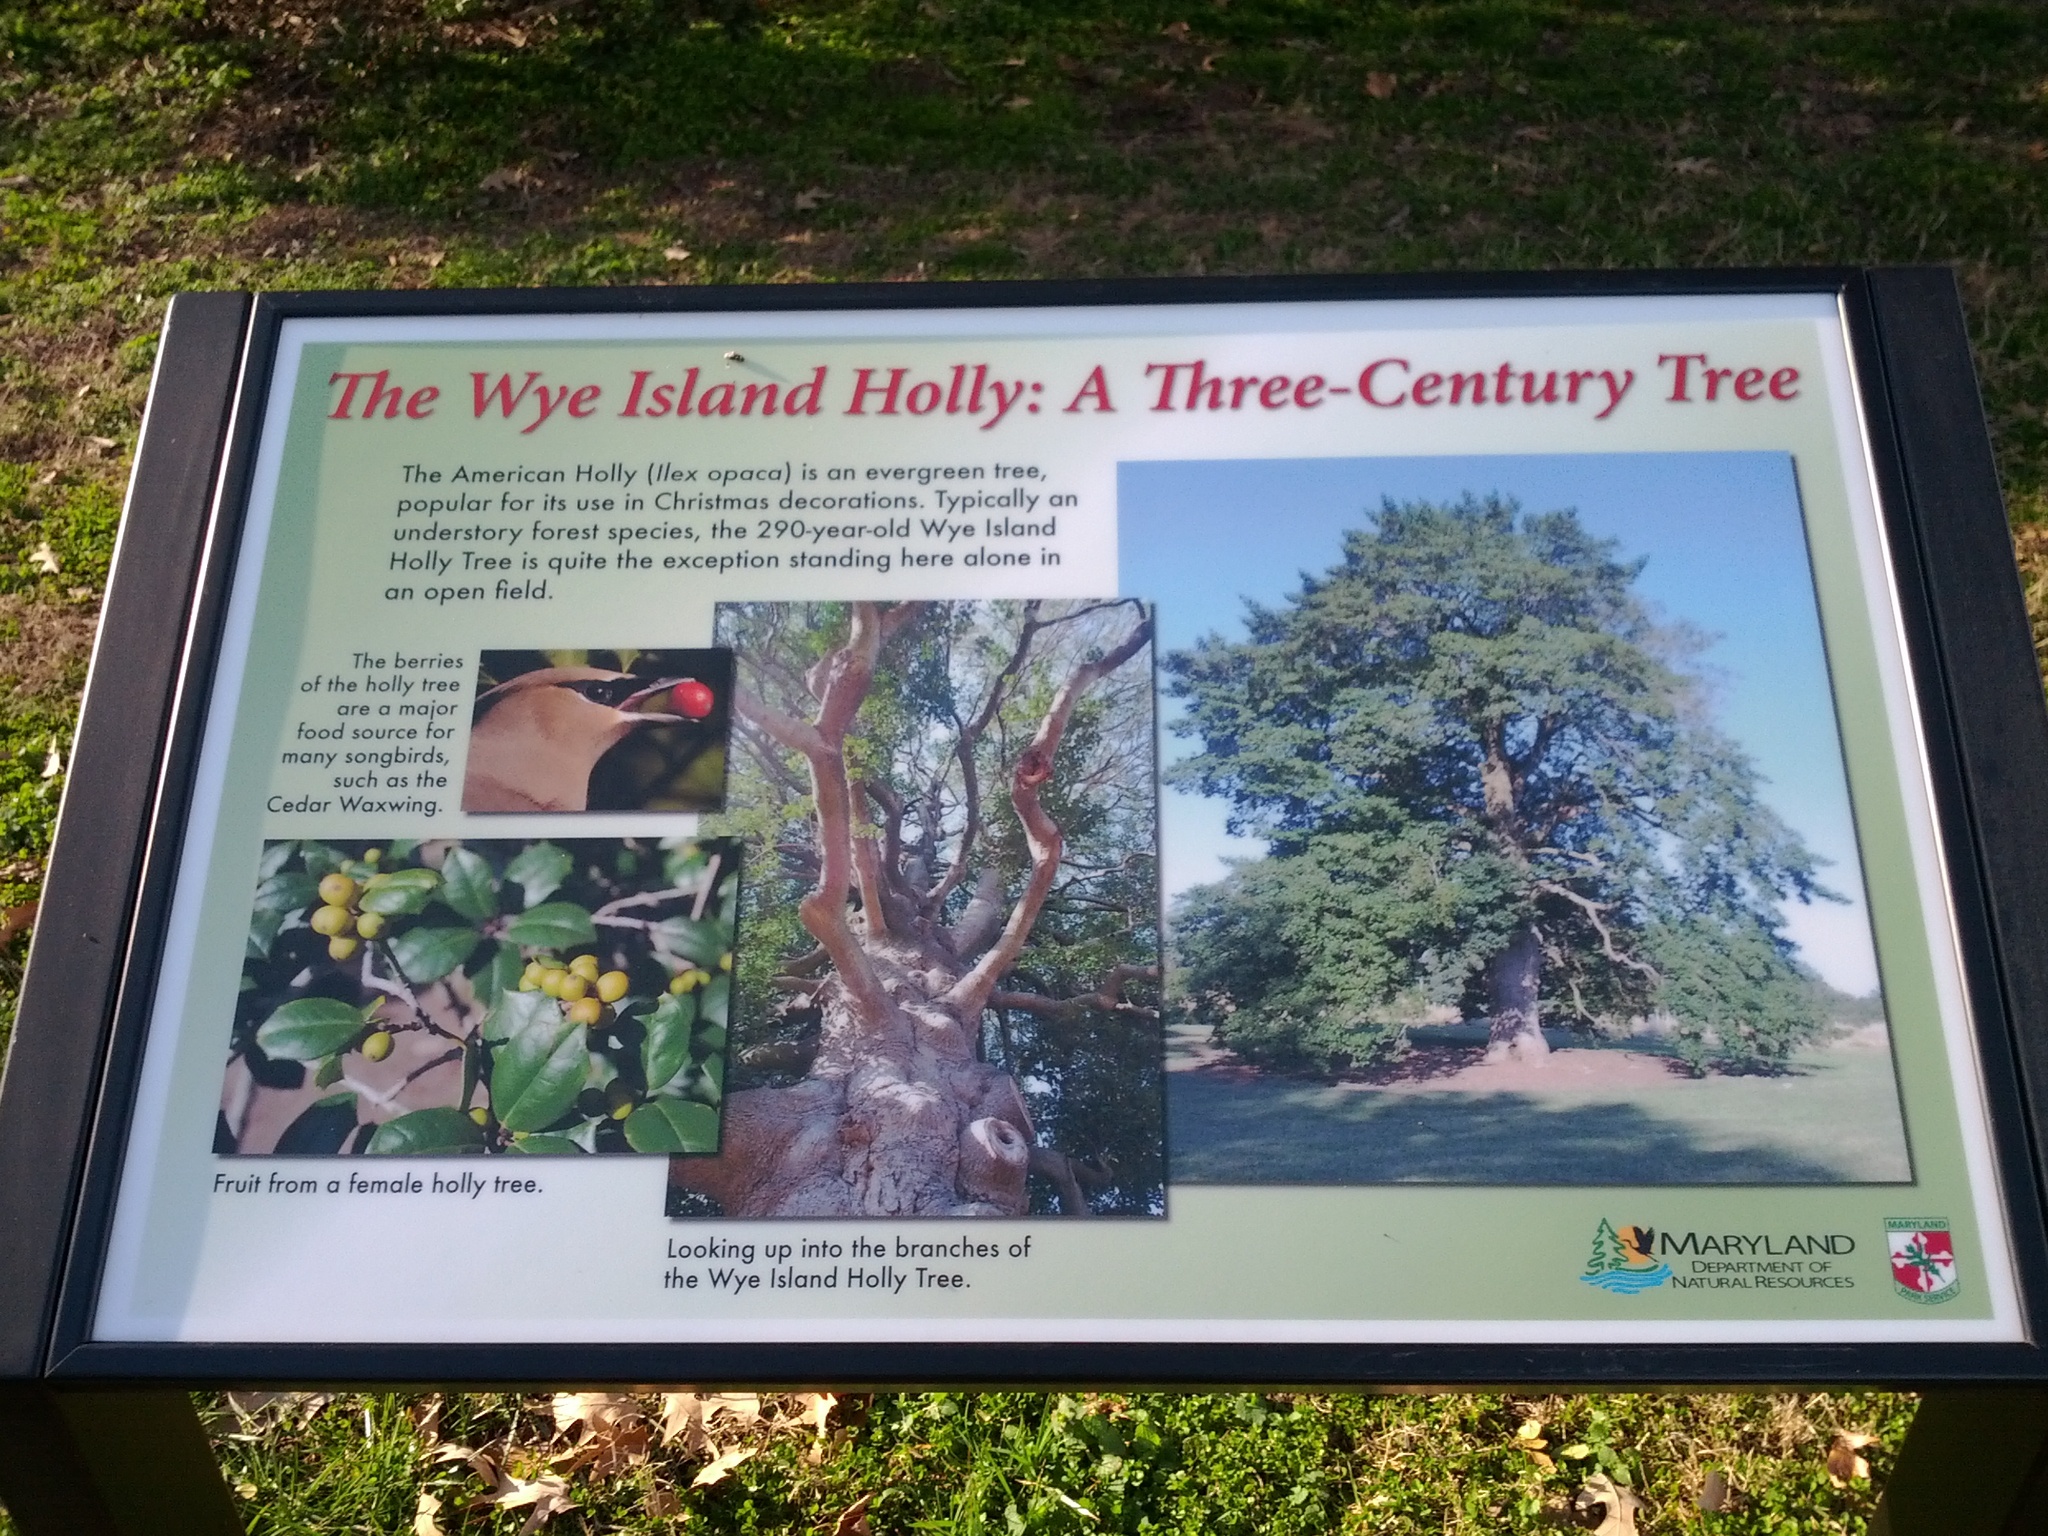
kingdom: Plantae
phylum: Tracheophyta
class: Magnoliopsida
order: Aquifoliales
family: Aquifoliaceae
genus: Ilex
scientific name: Ilex opaca
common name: American holly
